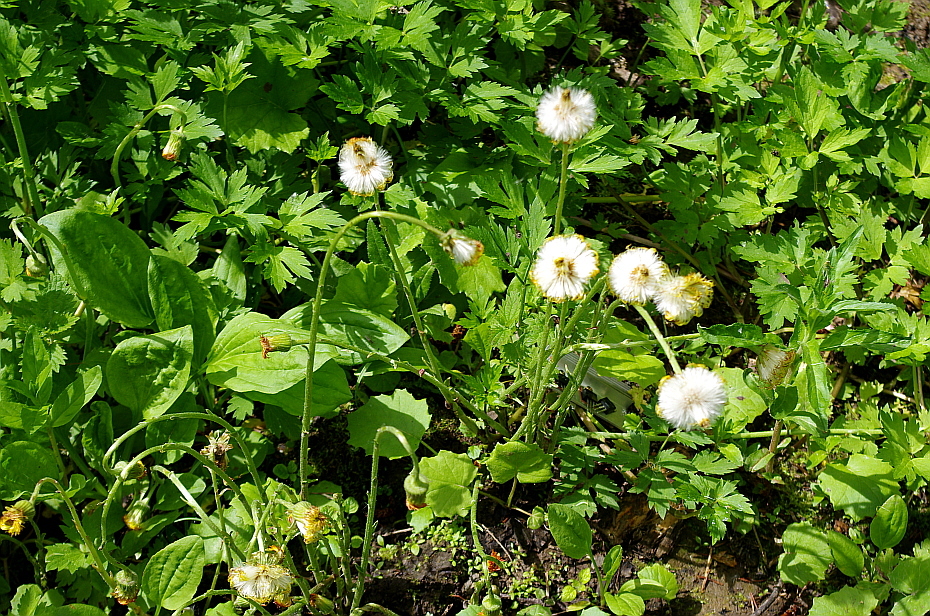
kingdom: Plantae
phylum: Tracheophyta
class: Magnoliopsida
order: Asterales
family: Asteraceae
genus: Tussilago
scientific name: Tussilago farfara
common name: Coltsfoot
